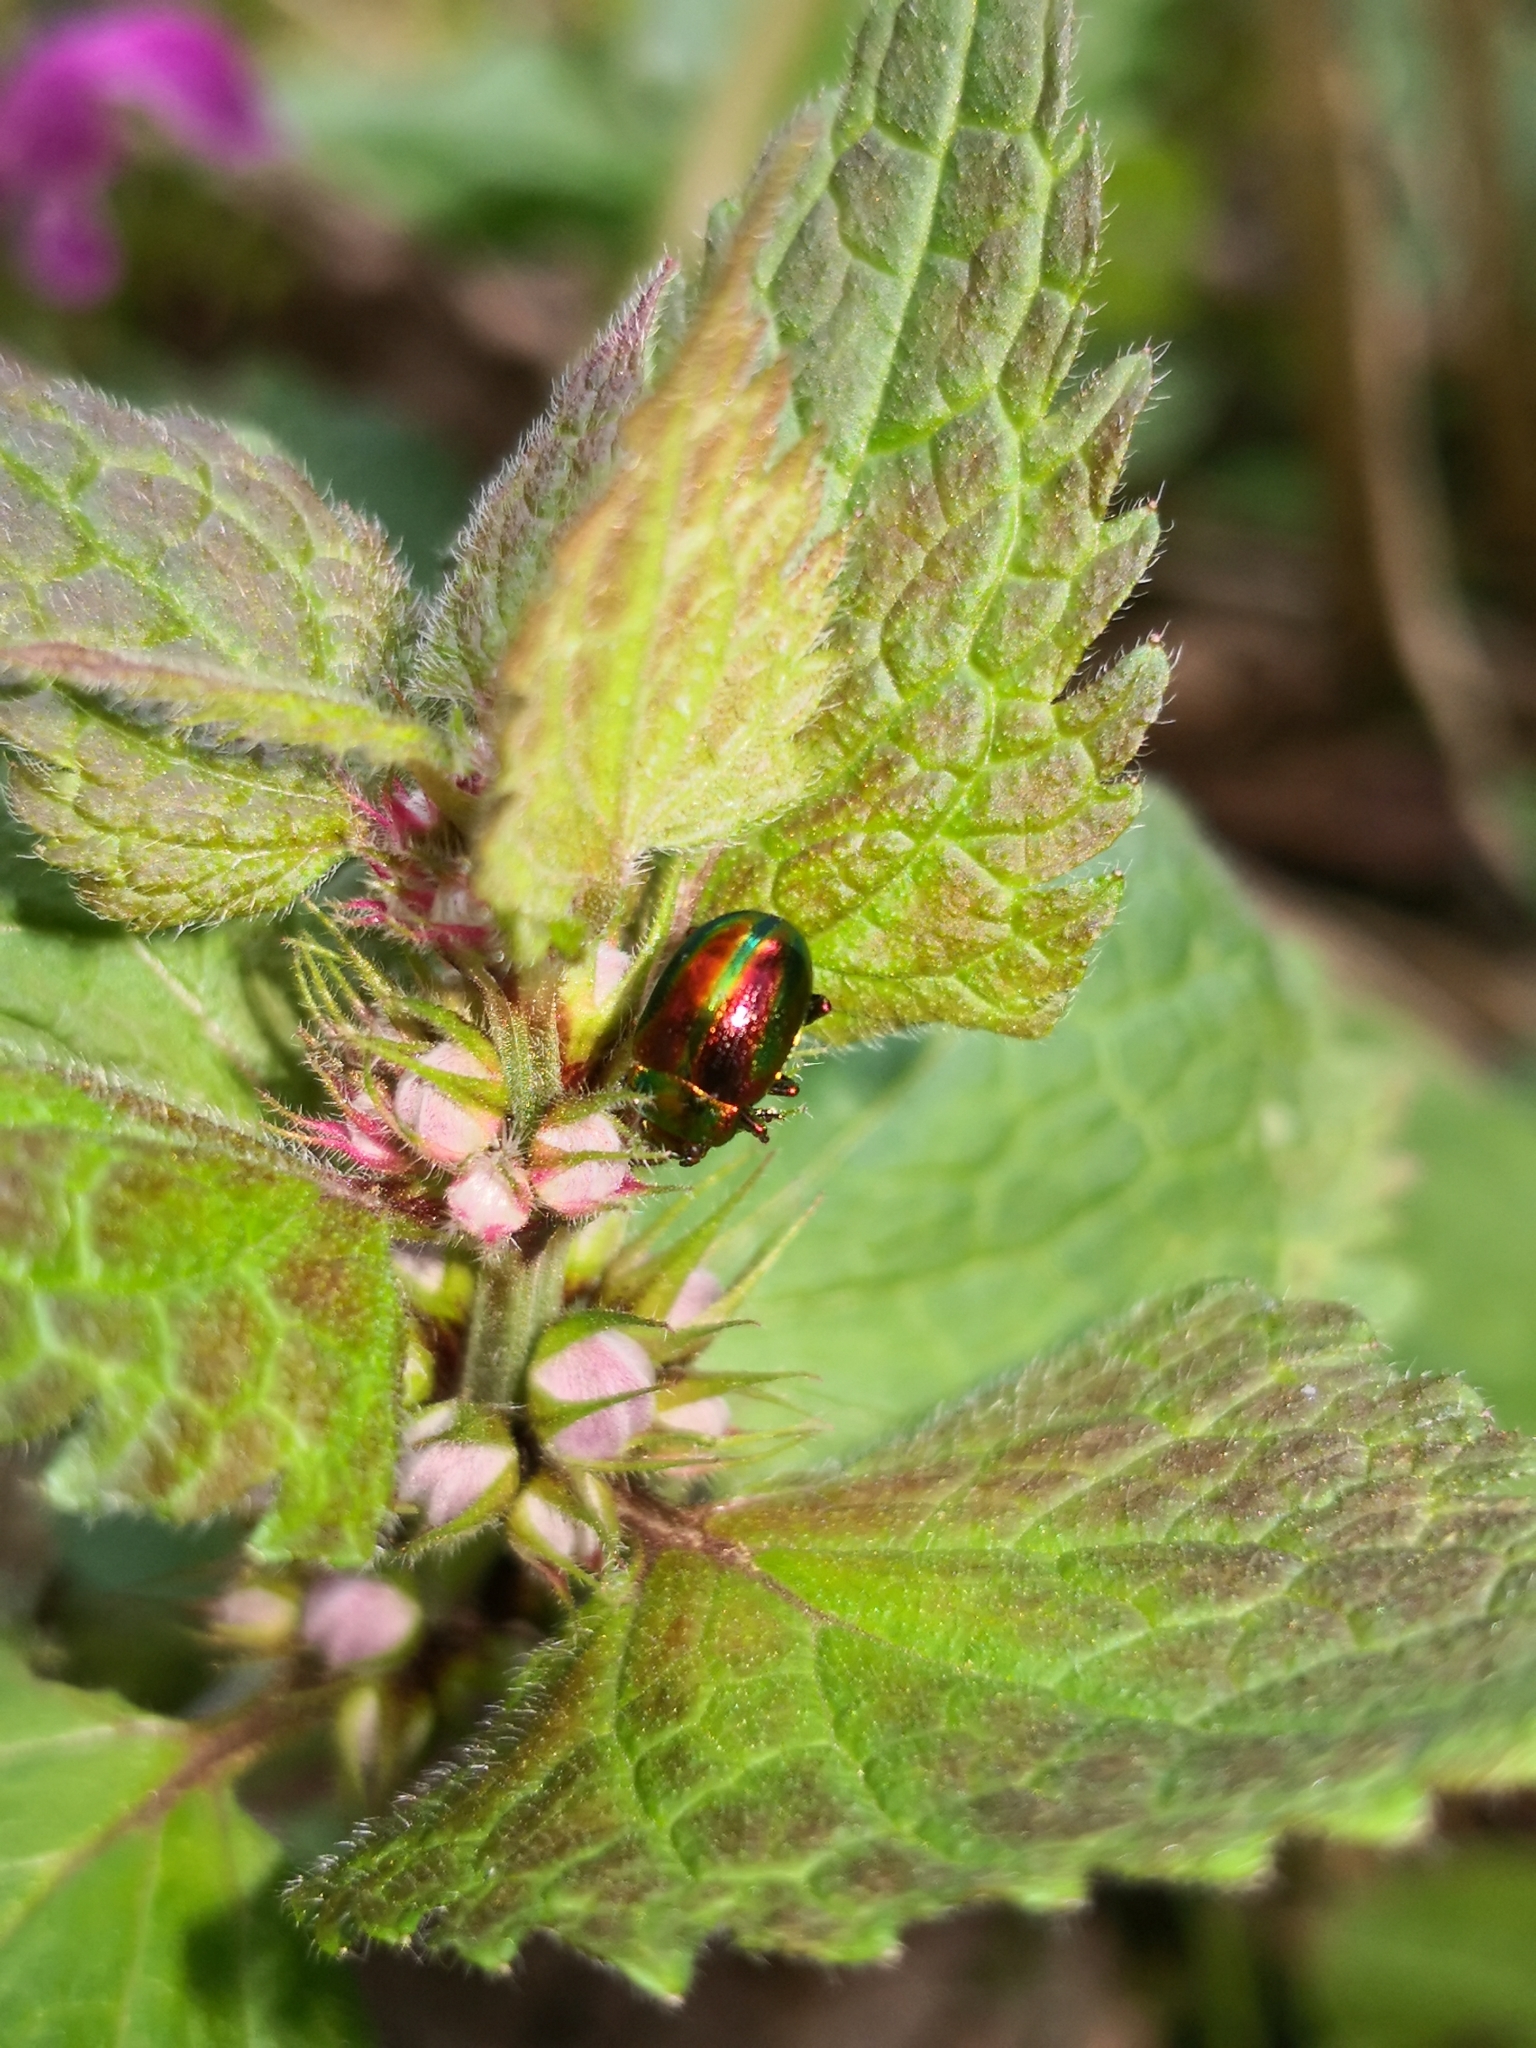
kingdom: Animalia
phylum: Arthropoda
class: Insecta
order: Coleoptera
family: Chrysomelidae
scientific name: Chrysomelidae
